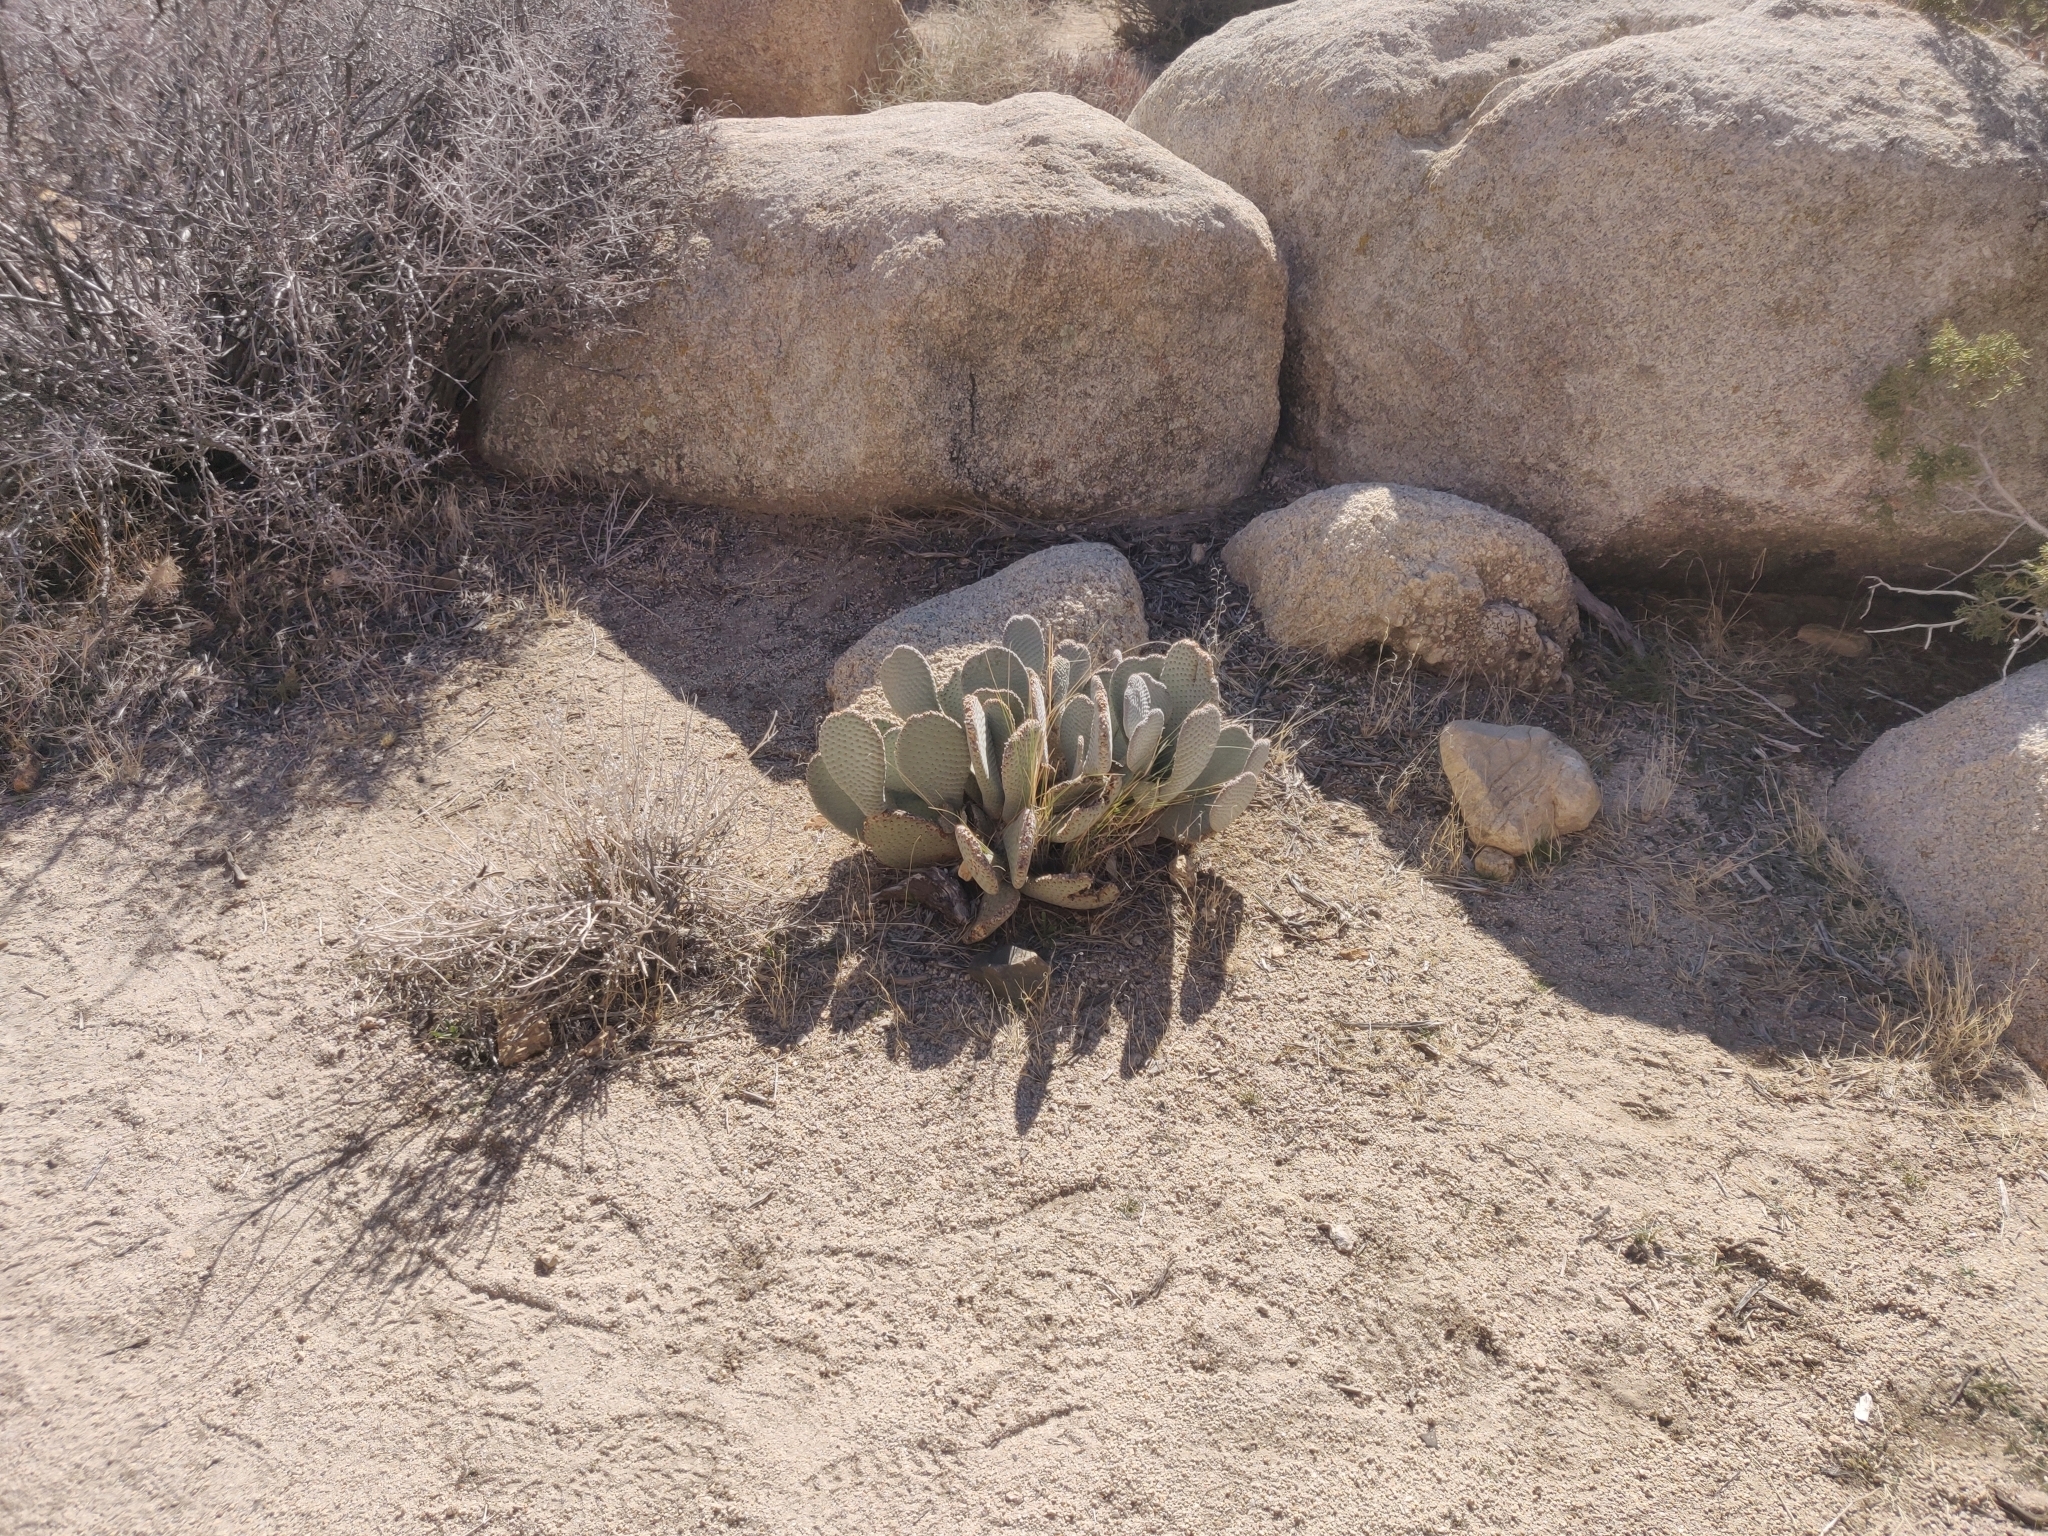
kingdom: Plantae
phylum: Tracheophyta
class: Magnoliopsida
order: Caryophyllales
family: Cactaceae
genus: Opuntia
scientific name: Opuntia basilaris
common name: Beavertail prickly-pear
